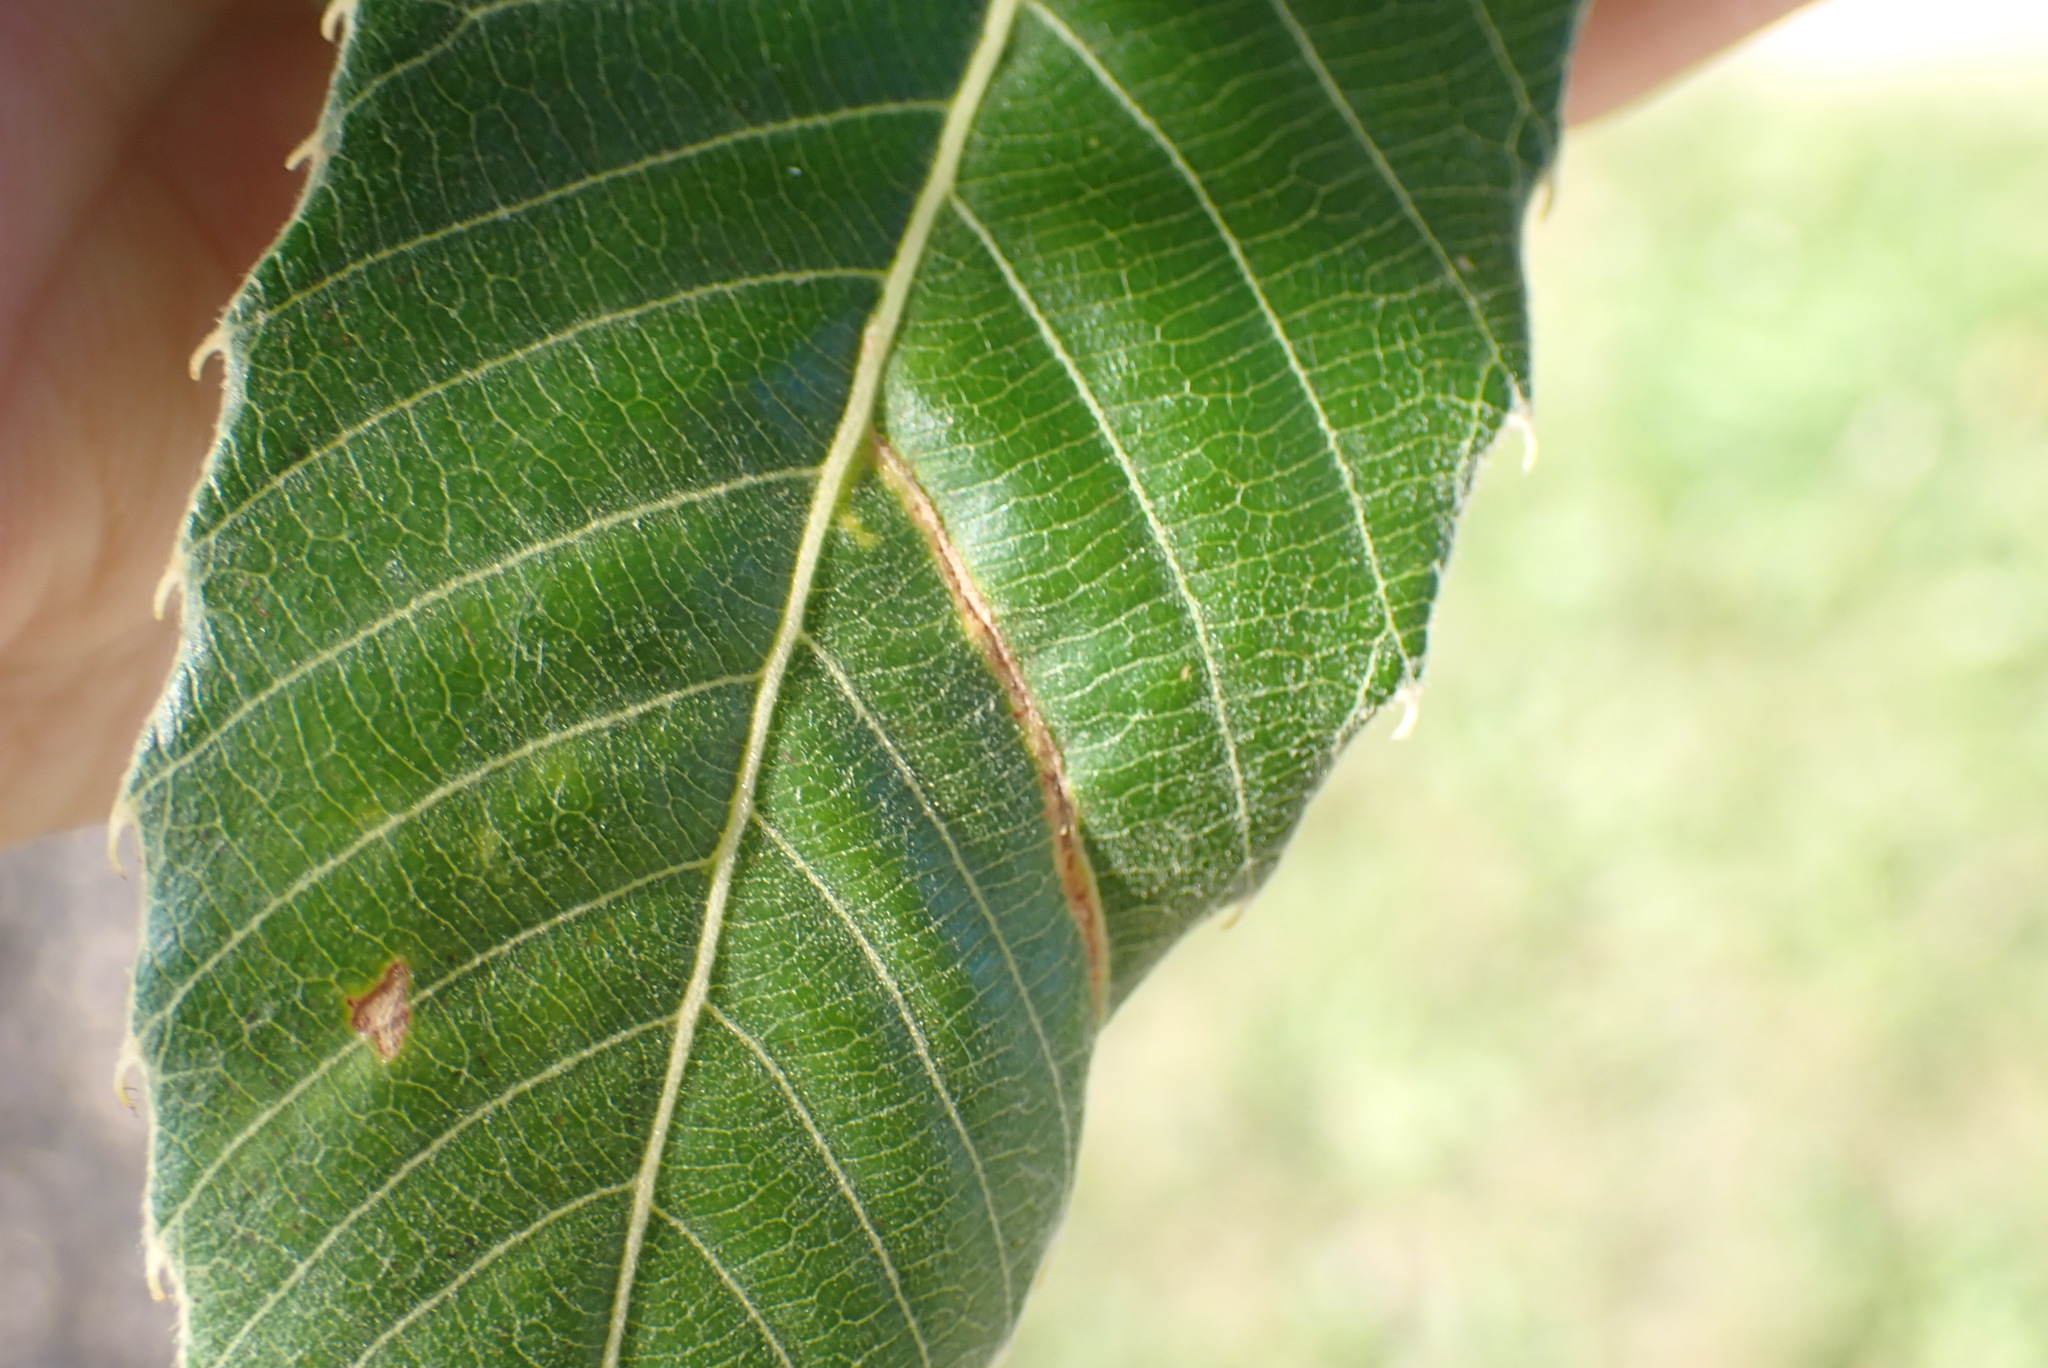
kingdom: Animalia
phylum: Arthropoda
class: Insecta
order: Lepidoptera
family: Gracillariidae
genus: Neurobathra
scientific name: Neurobathra strigifinitella
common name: Finite-channeled leafminer moth
